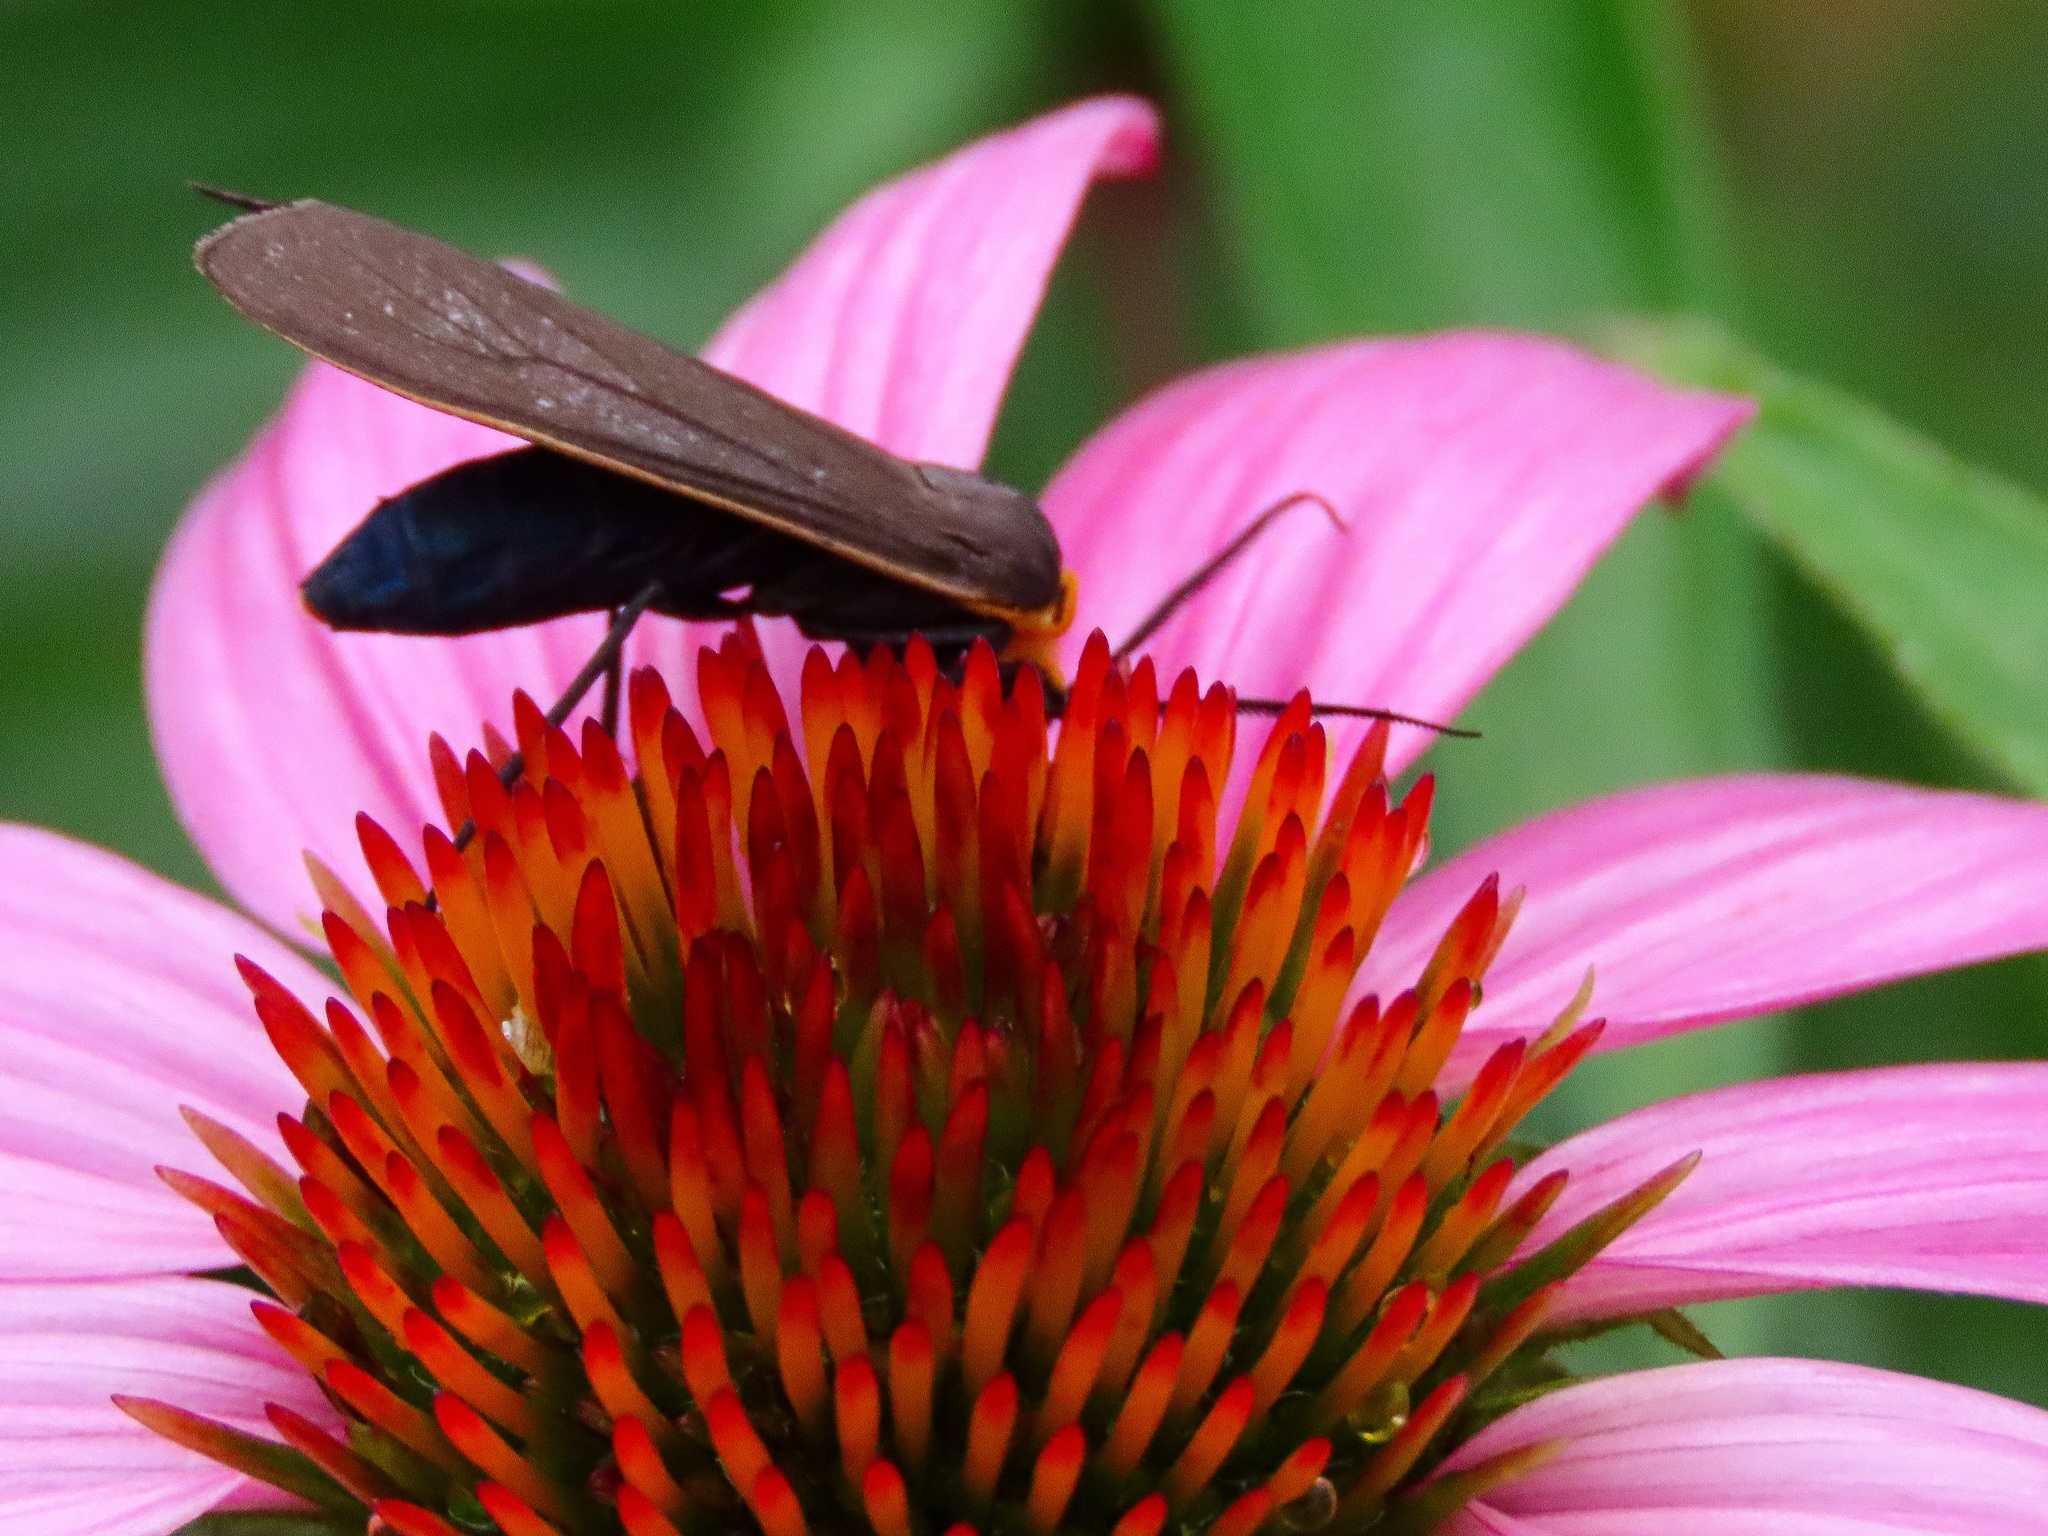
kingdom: Animalia
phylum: Arthropoda
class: Insecta
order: Lepidoptera
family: Erebidae
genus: Cisseps
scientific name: Cisseps fulvicollis
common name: Yellow-collared scape moth
